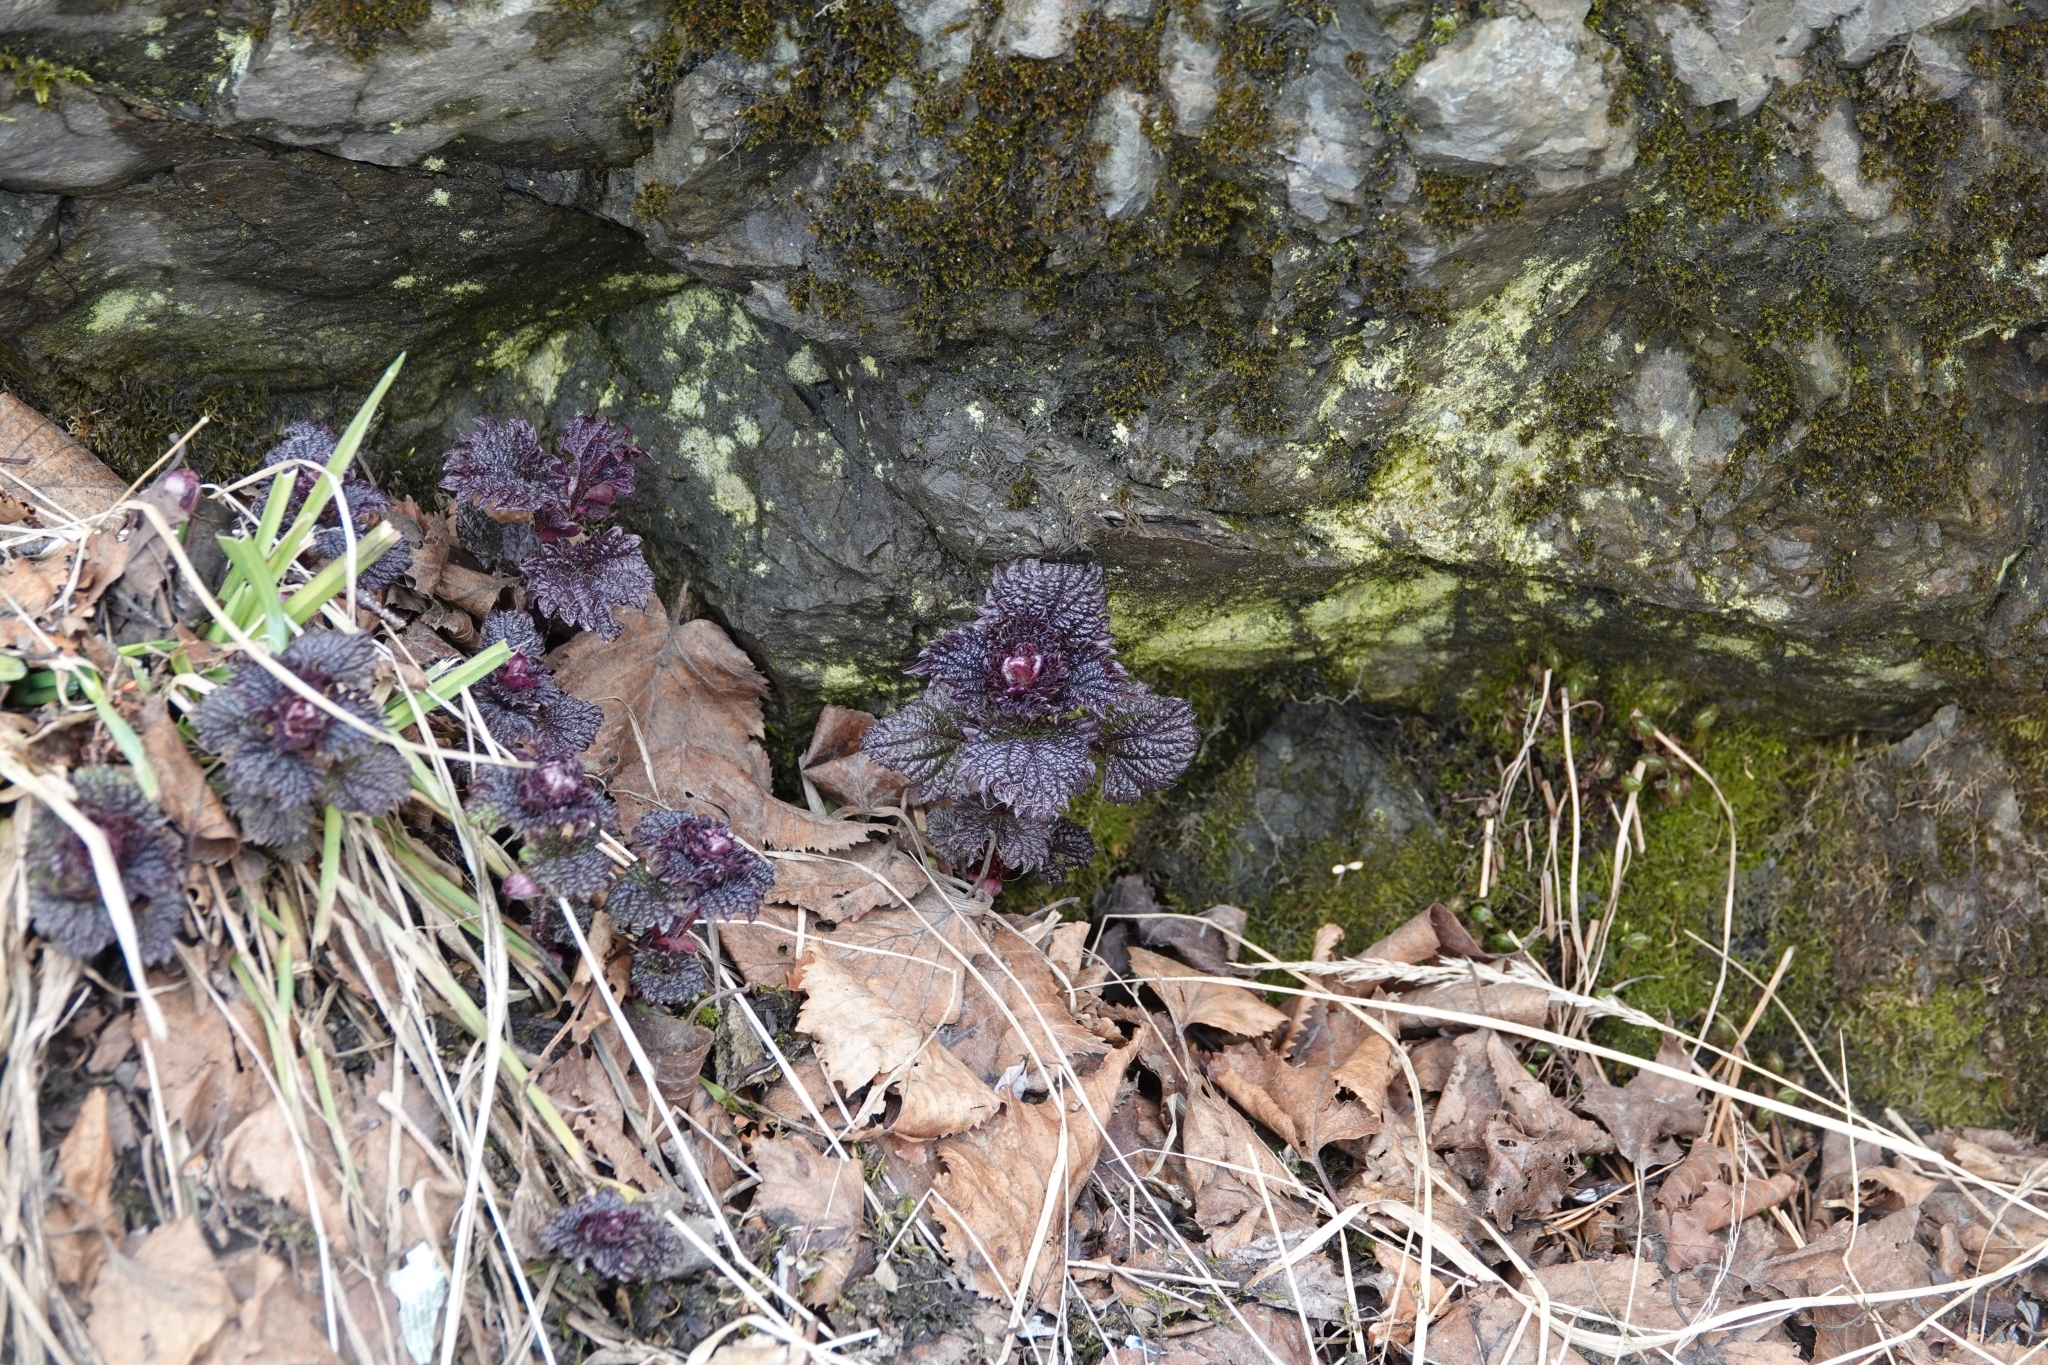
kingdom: Plantae
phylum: Tracheophyta
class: Magnoliopsida
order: Rosales
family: Urticaceae
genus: Urtica
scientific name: Urtica platyphylla
